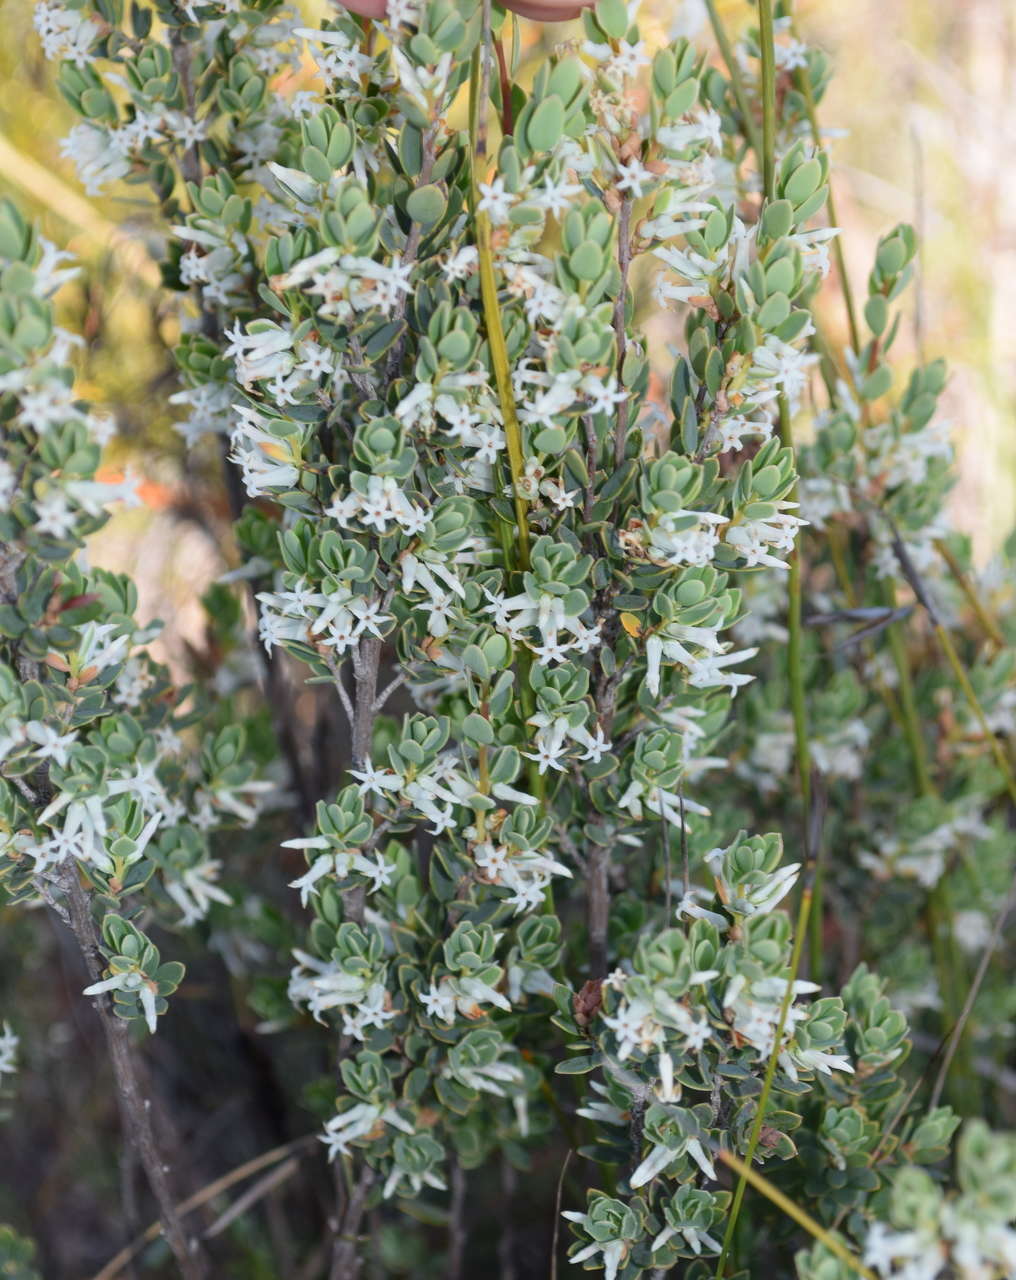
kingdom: Plantae
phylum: Tracheophyta
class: Magnoliopsida
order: Ericales
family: Ericaceae
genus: Brachyloma
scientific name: Brachyloma daphnoides
